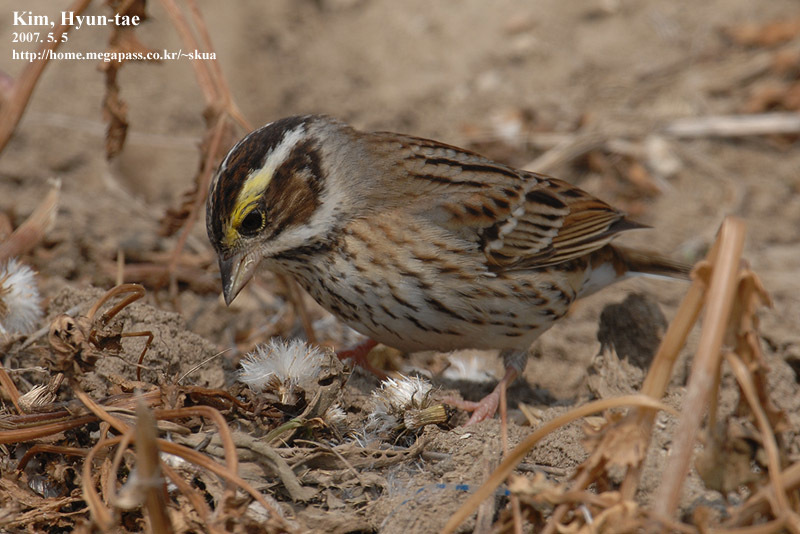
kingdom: Animalia
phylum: Chordata
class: Aves
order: Passeriformes
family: Emberizidae
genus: Emberiza
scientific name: Emberiza chrysophrys
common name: Yellow-browed bunting
